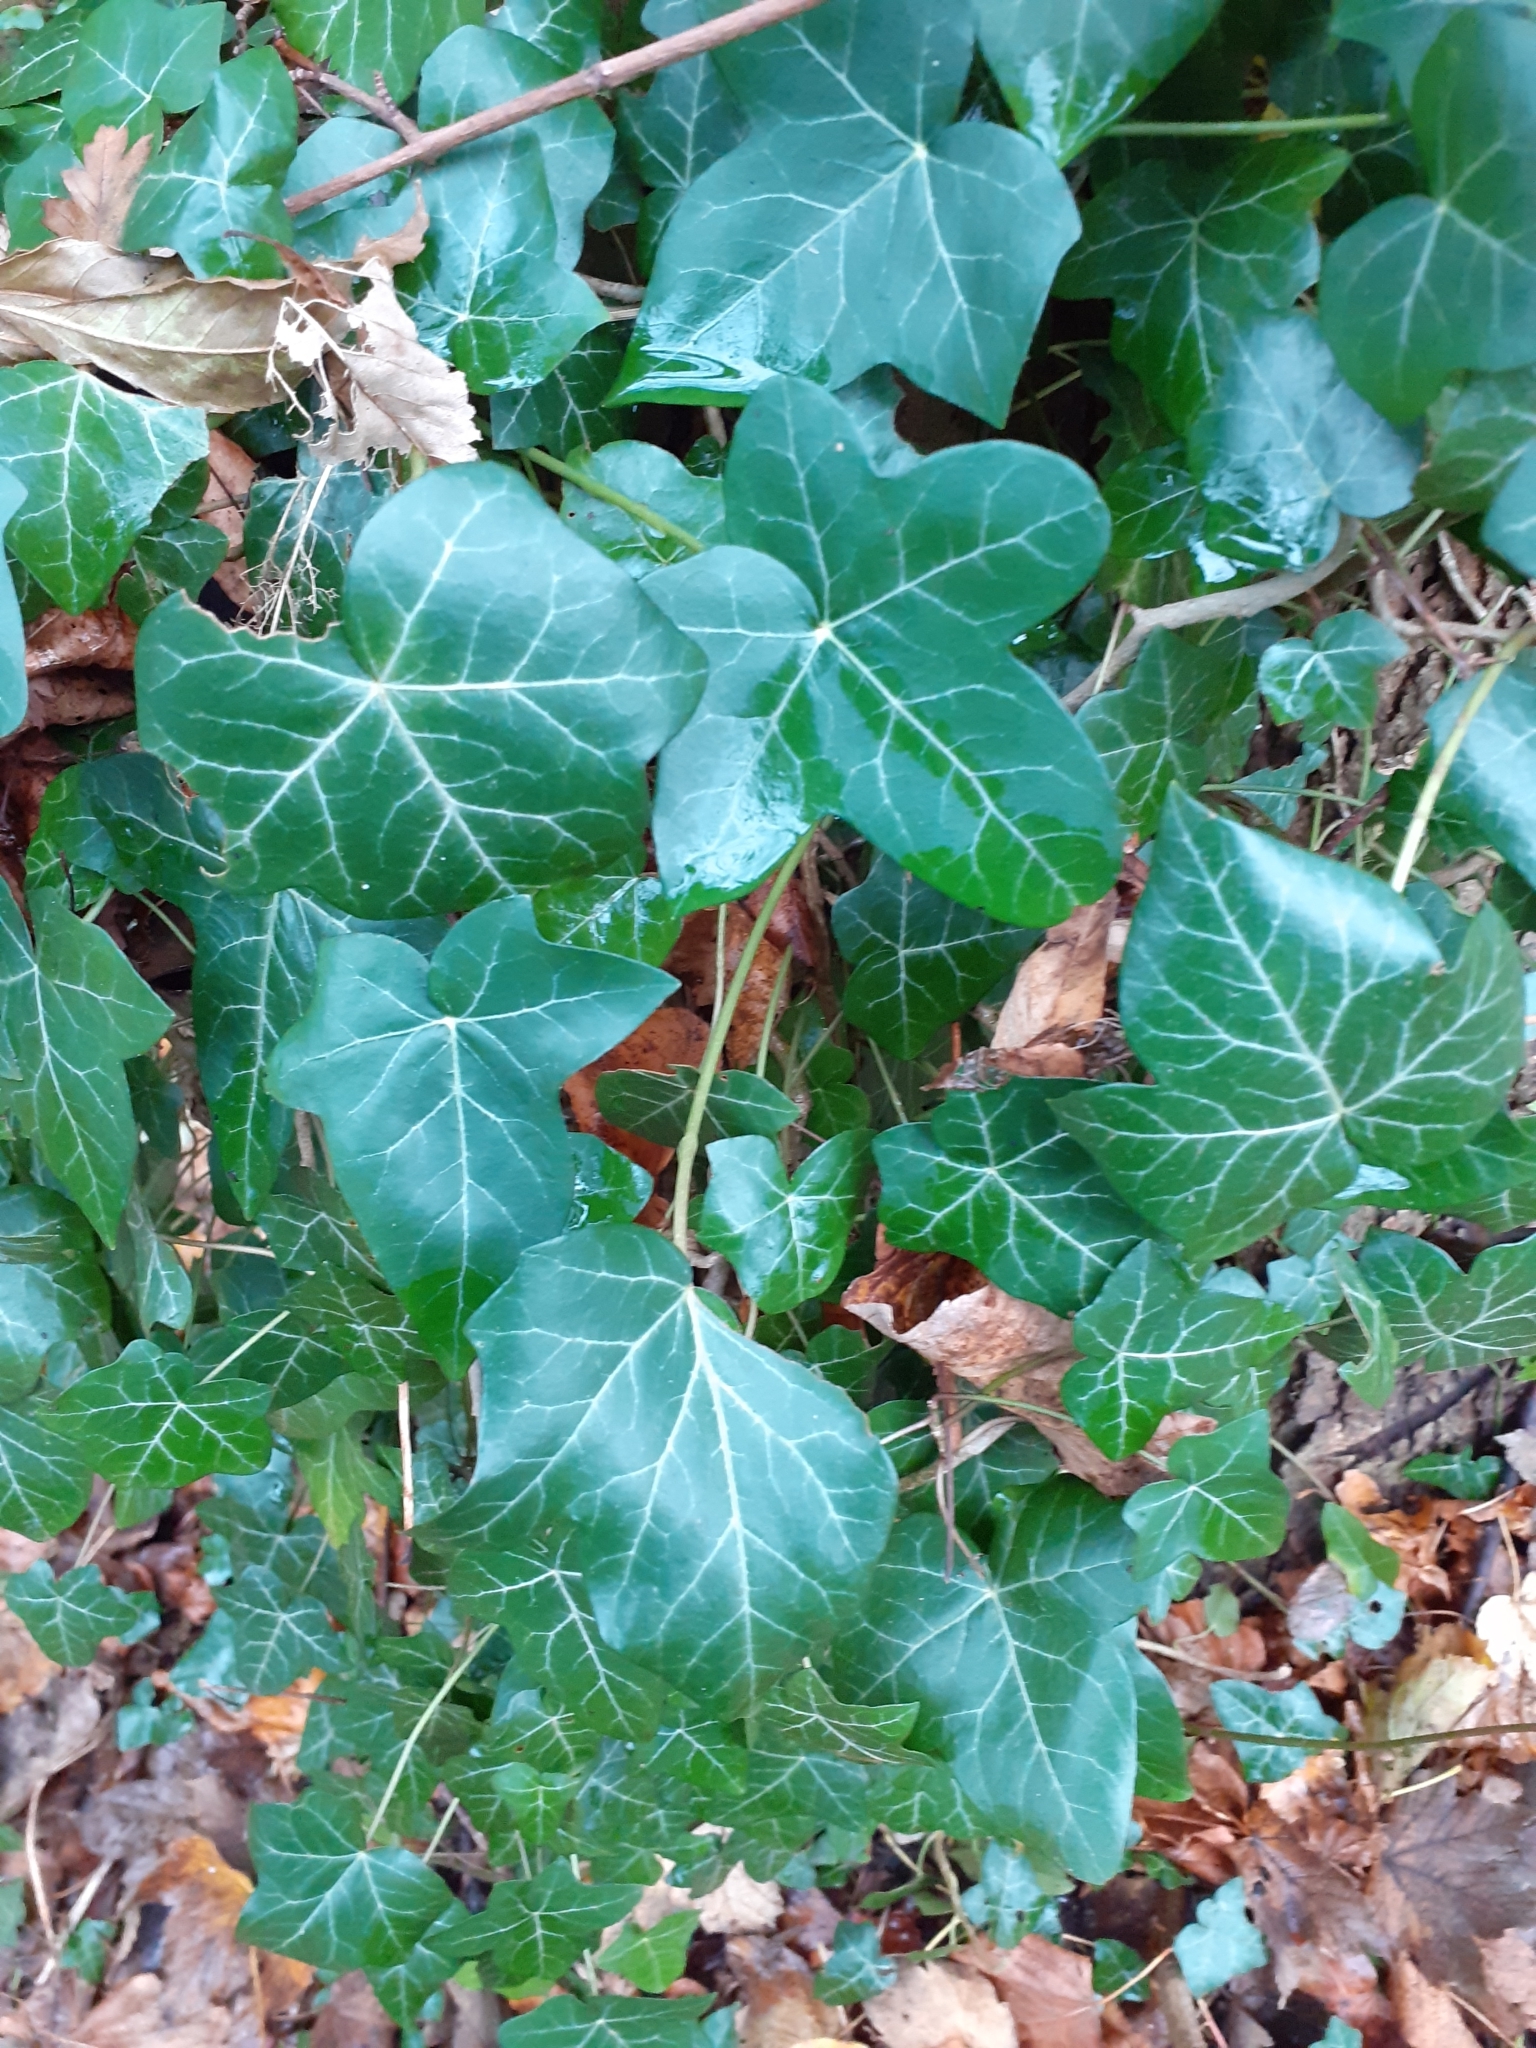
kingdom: Plantae
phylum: Tracheophyta
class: Magnoliopsida
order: Apiales
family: Araliaceae
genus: Hedera
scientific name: Hedera helix
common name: Ivy
